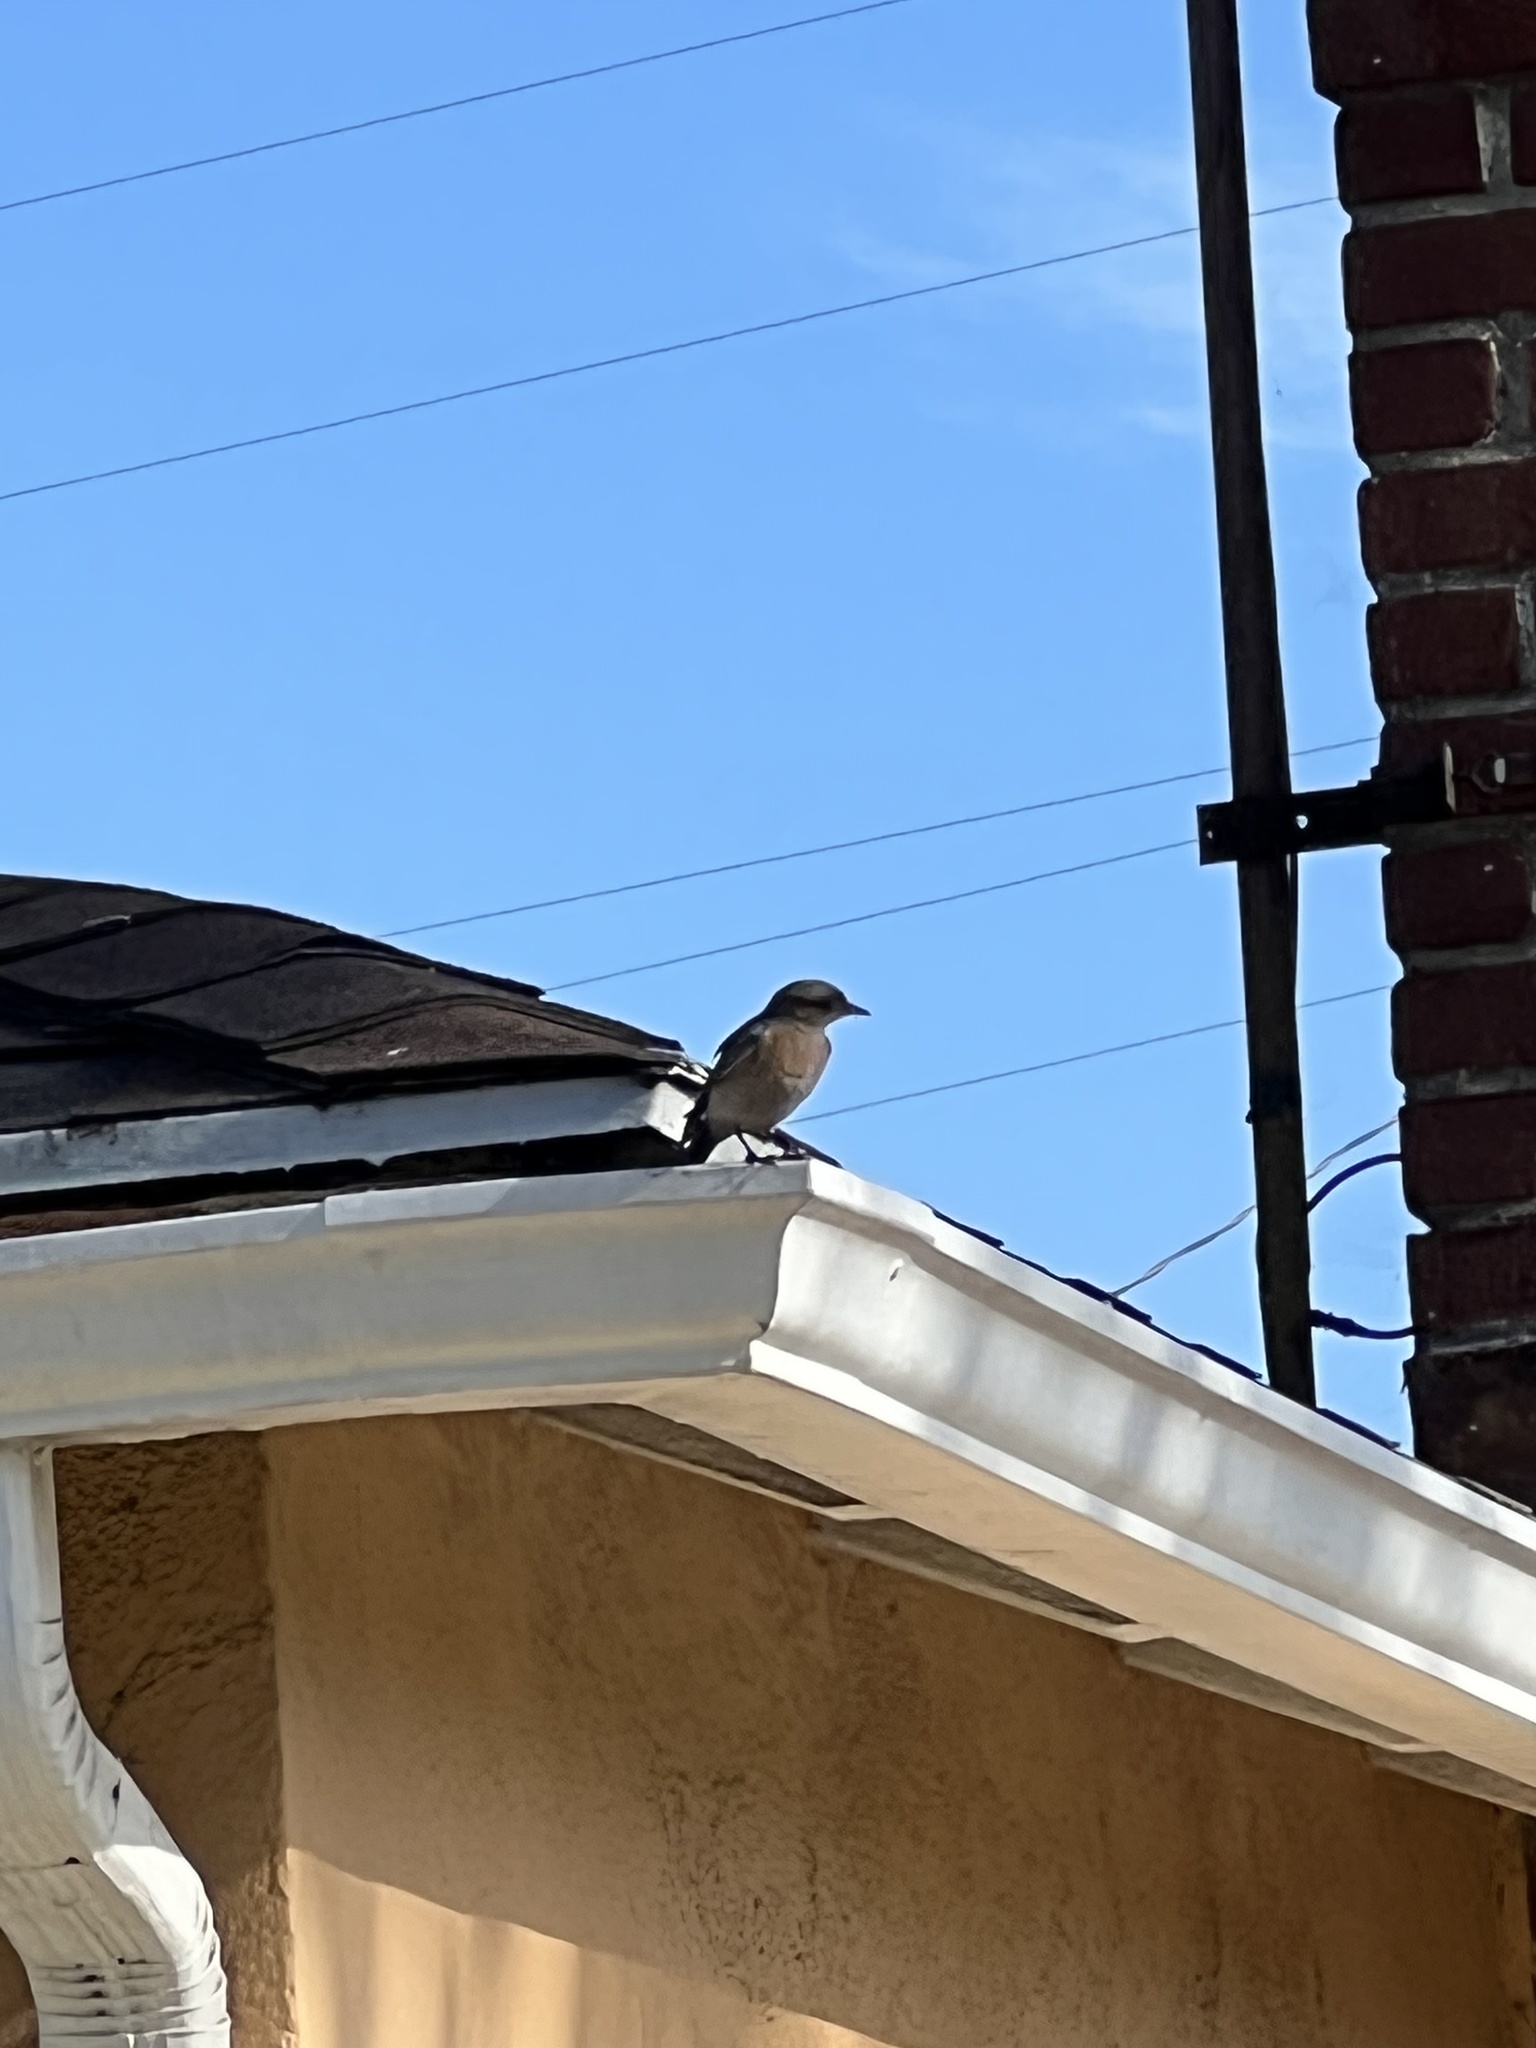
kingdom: Animalia
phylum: Chordata
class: Aves
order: Passeriformes
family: Turdidae
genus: Sialia
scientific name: Sialia mexicana
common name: Western bluebird
